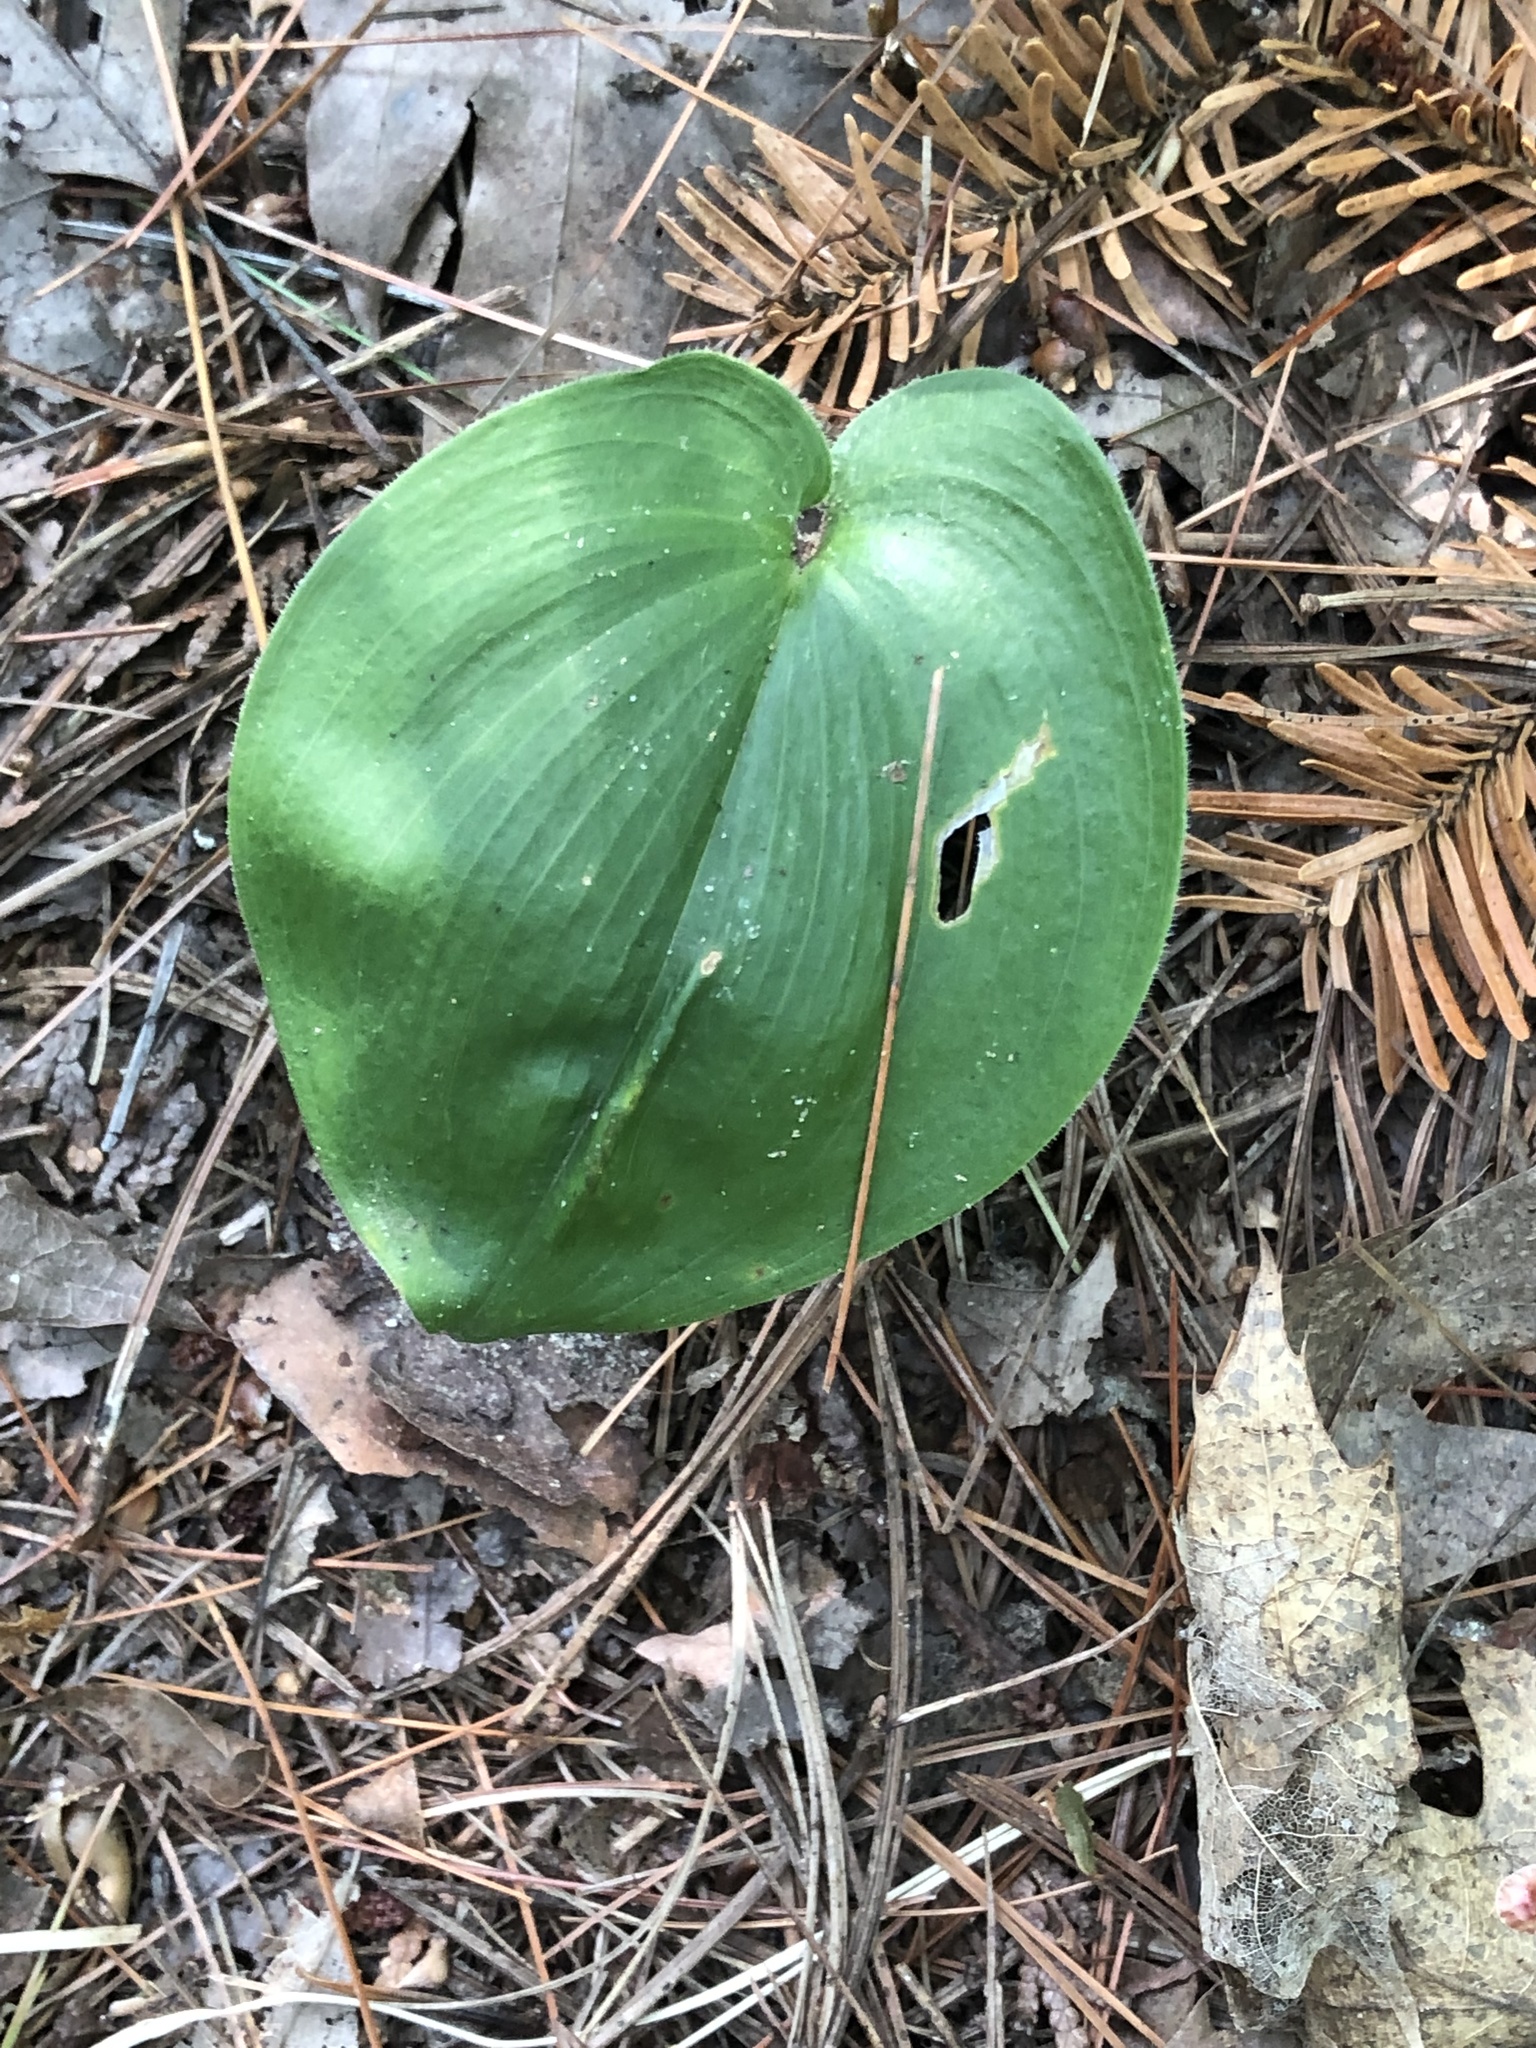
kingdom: Plantae
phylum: Tracheophyta
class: Liliopsida
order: Asparagales
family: Asparagaceae
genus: Maianthemum
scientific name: Maianthemum canadense
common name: False lily-of-the-valley
